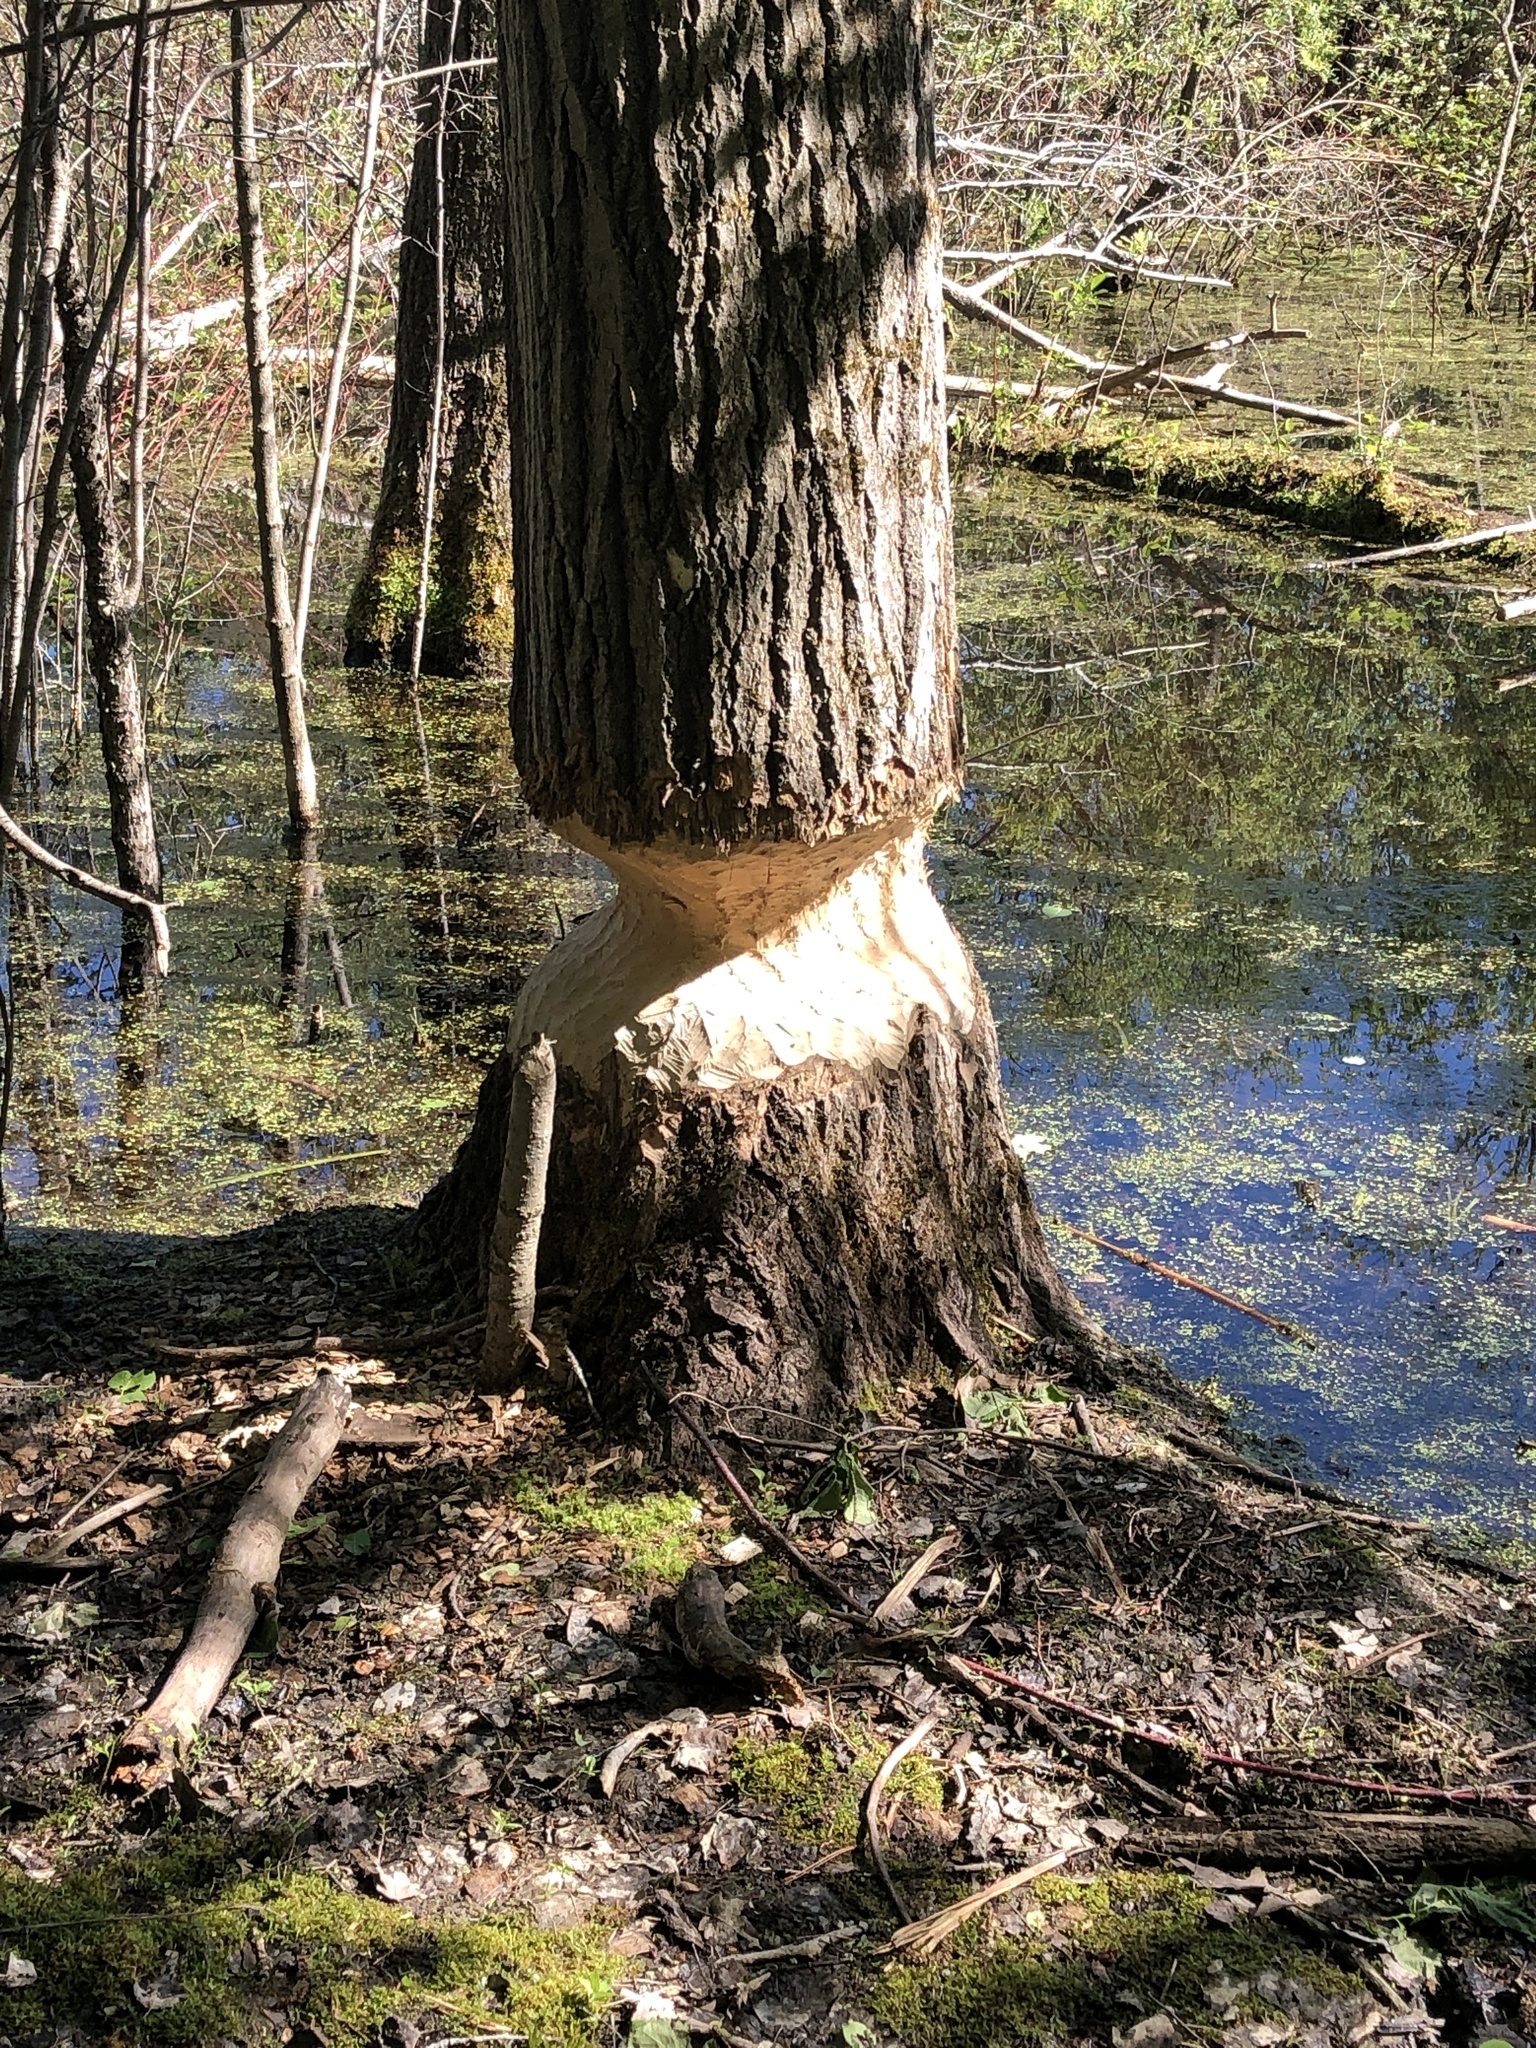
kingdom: Animalia
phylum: Chordata
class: Mammalia
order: Rodentia
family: Castoridae
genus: Castor
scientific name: Castor canadensis
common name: American beaver
